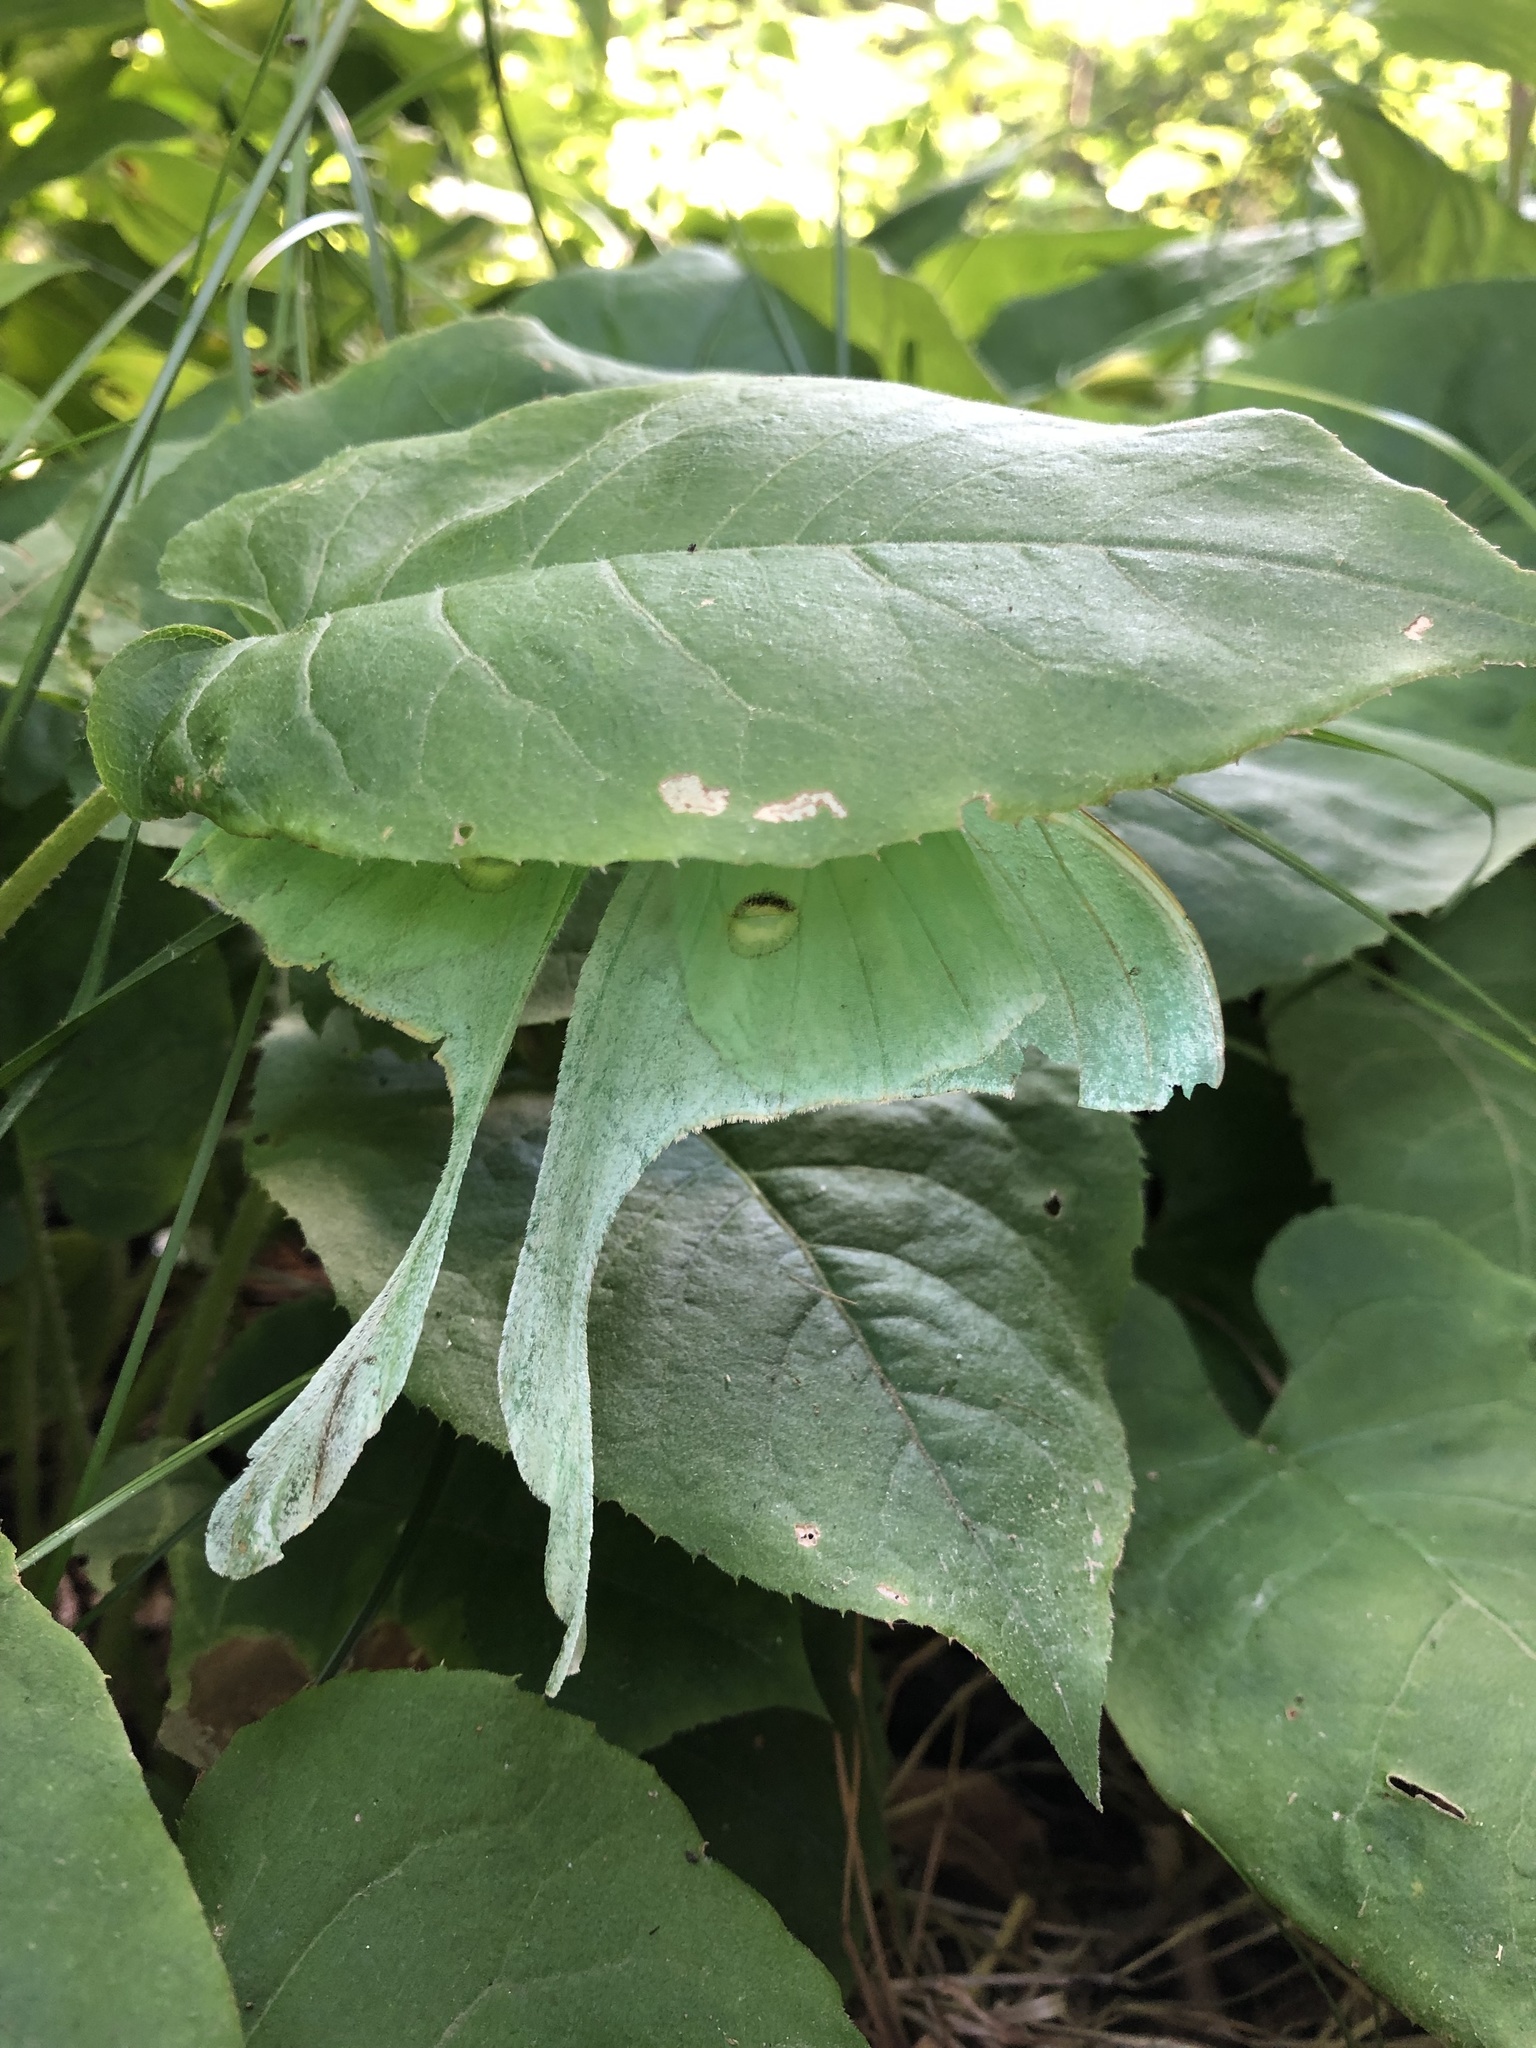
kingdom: Animalia
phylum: Arthropoda
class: Insecta
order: Lepidoptera
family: Saturniidae
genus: Actias
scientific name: Actias luna
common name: Luna moth
